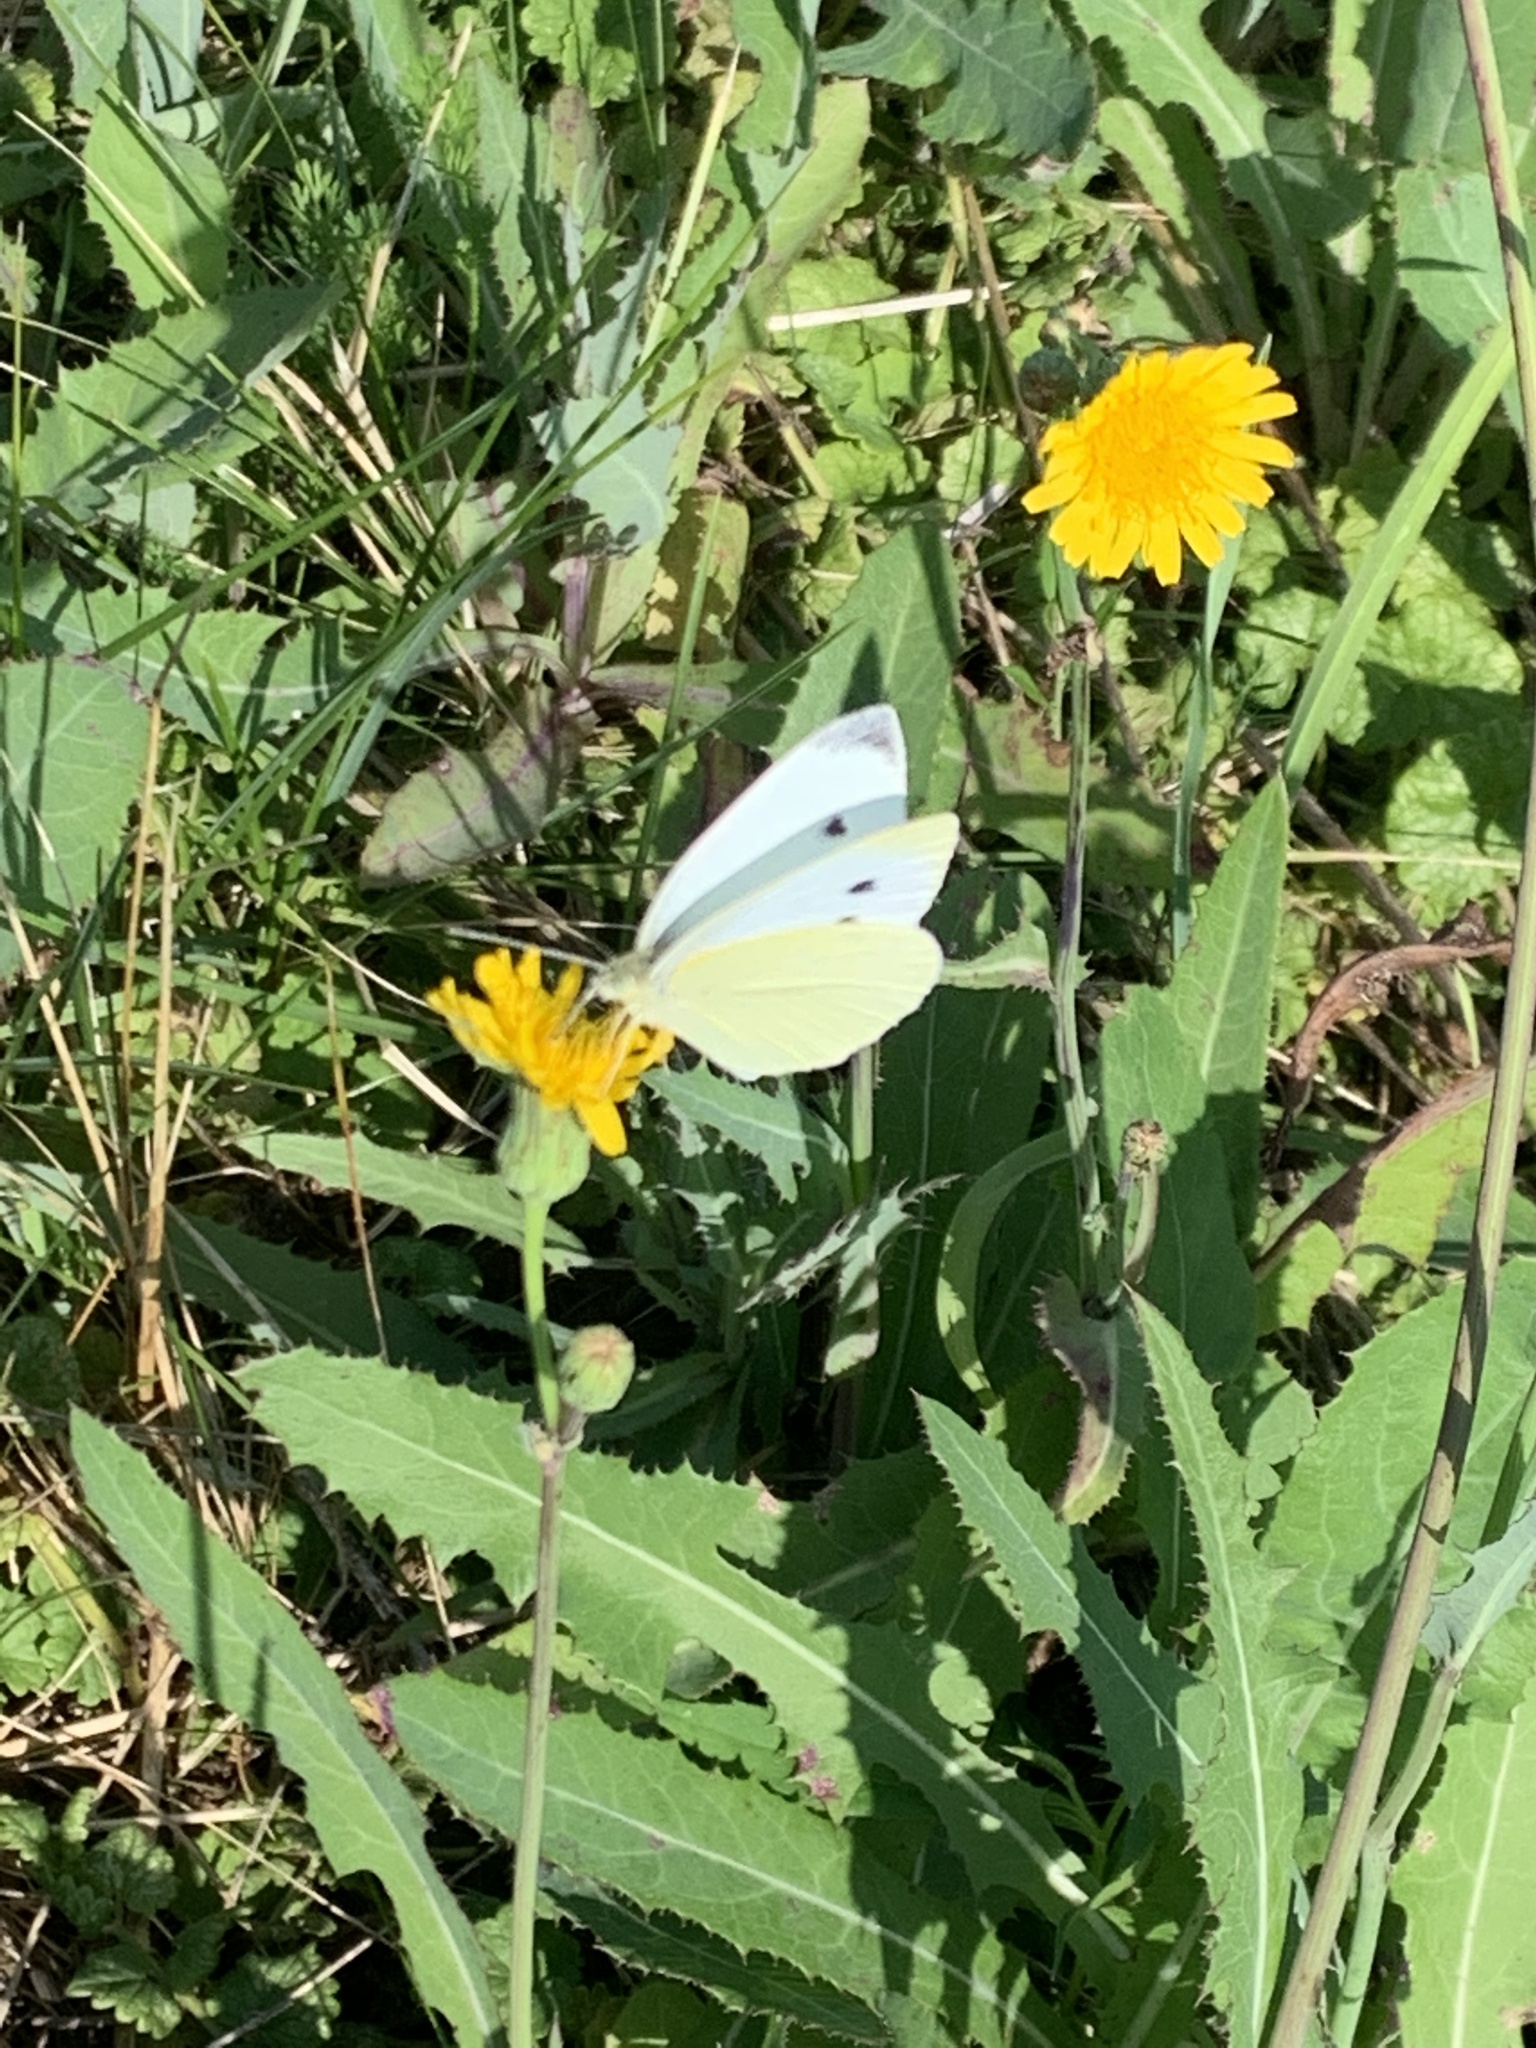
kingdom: Animalia
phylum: Arthropoda
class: Insecta
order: Lepidoptera
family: Pieridae
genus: Pieris
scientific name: Pieris rapae
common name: Small white
